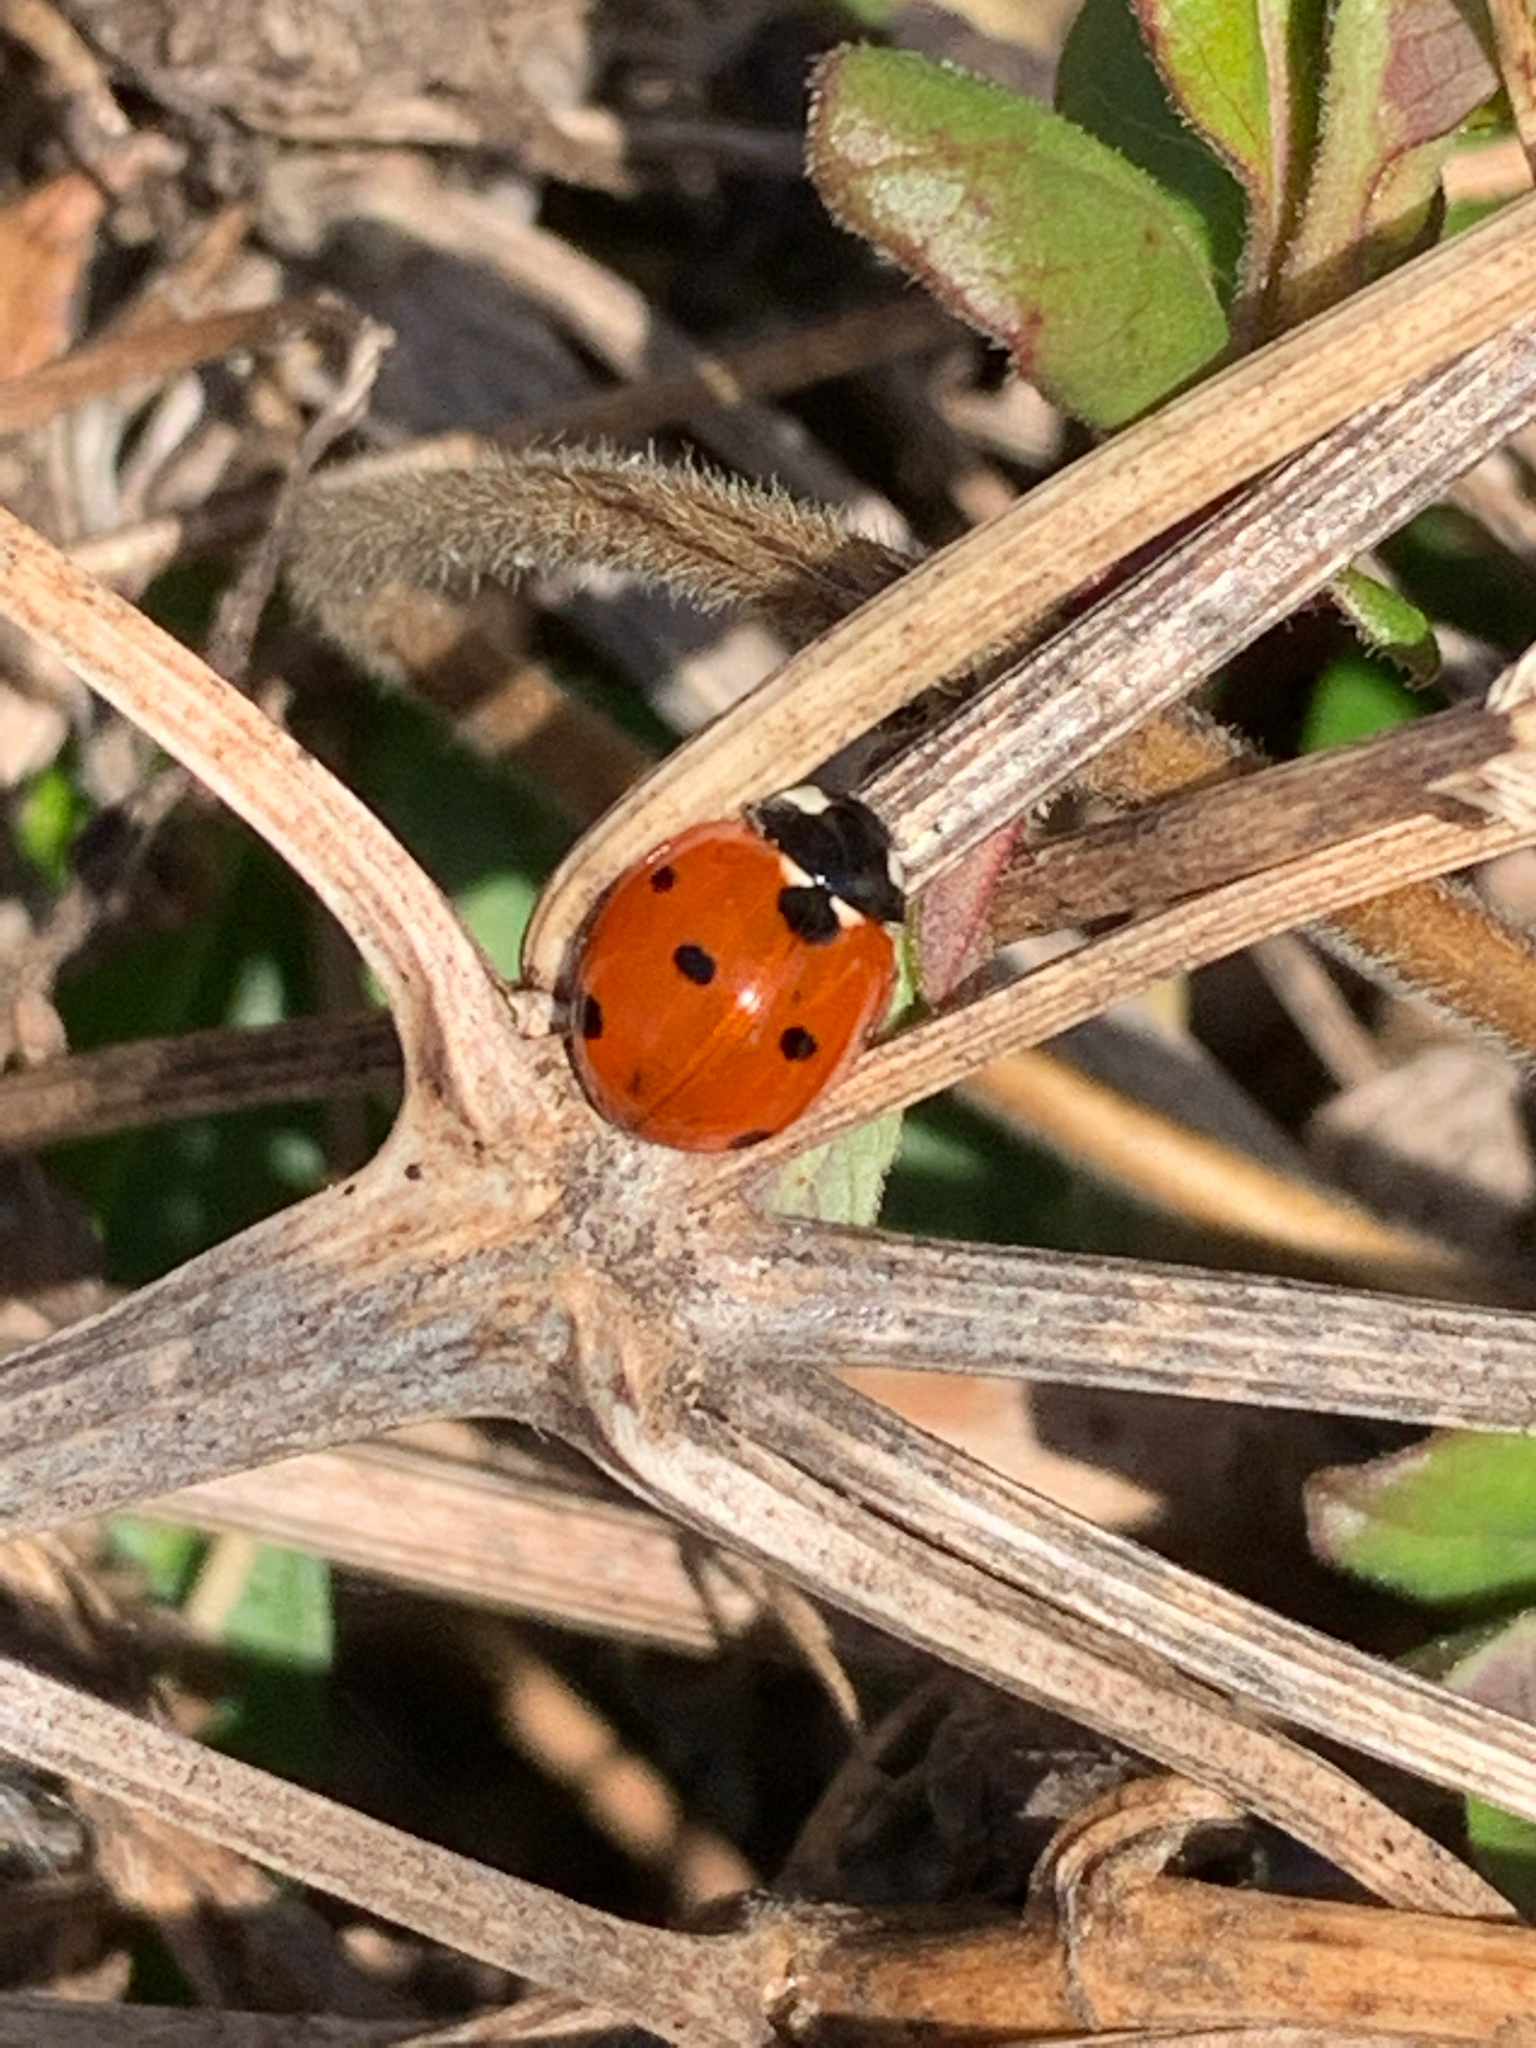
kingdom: Animalia
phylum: Arthropoda
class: Insecta
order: Coleoptera
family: Coccinellidae
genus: Coccinella
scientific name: Coccinella septempunctata
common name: Sevenspotted lady beetle
